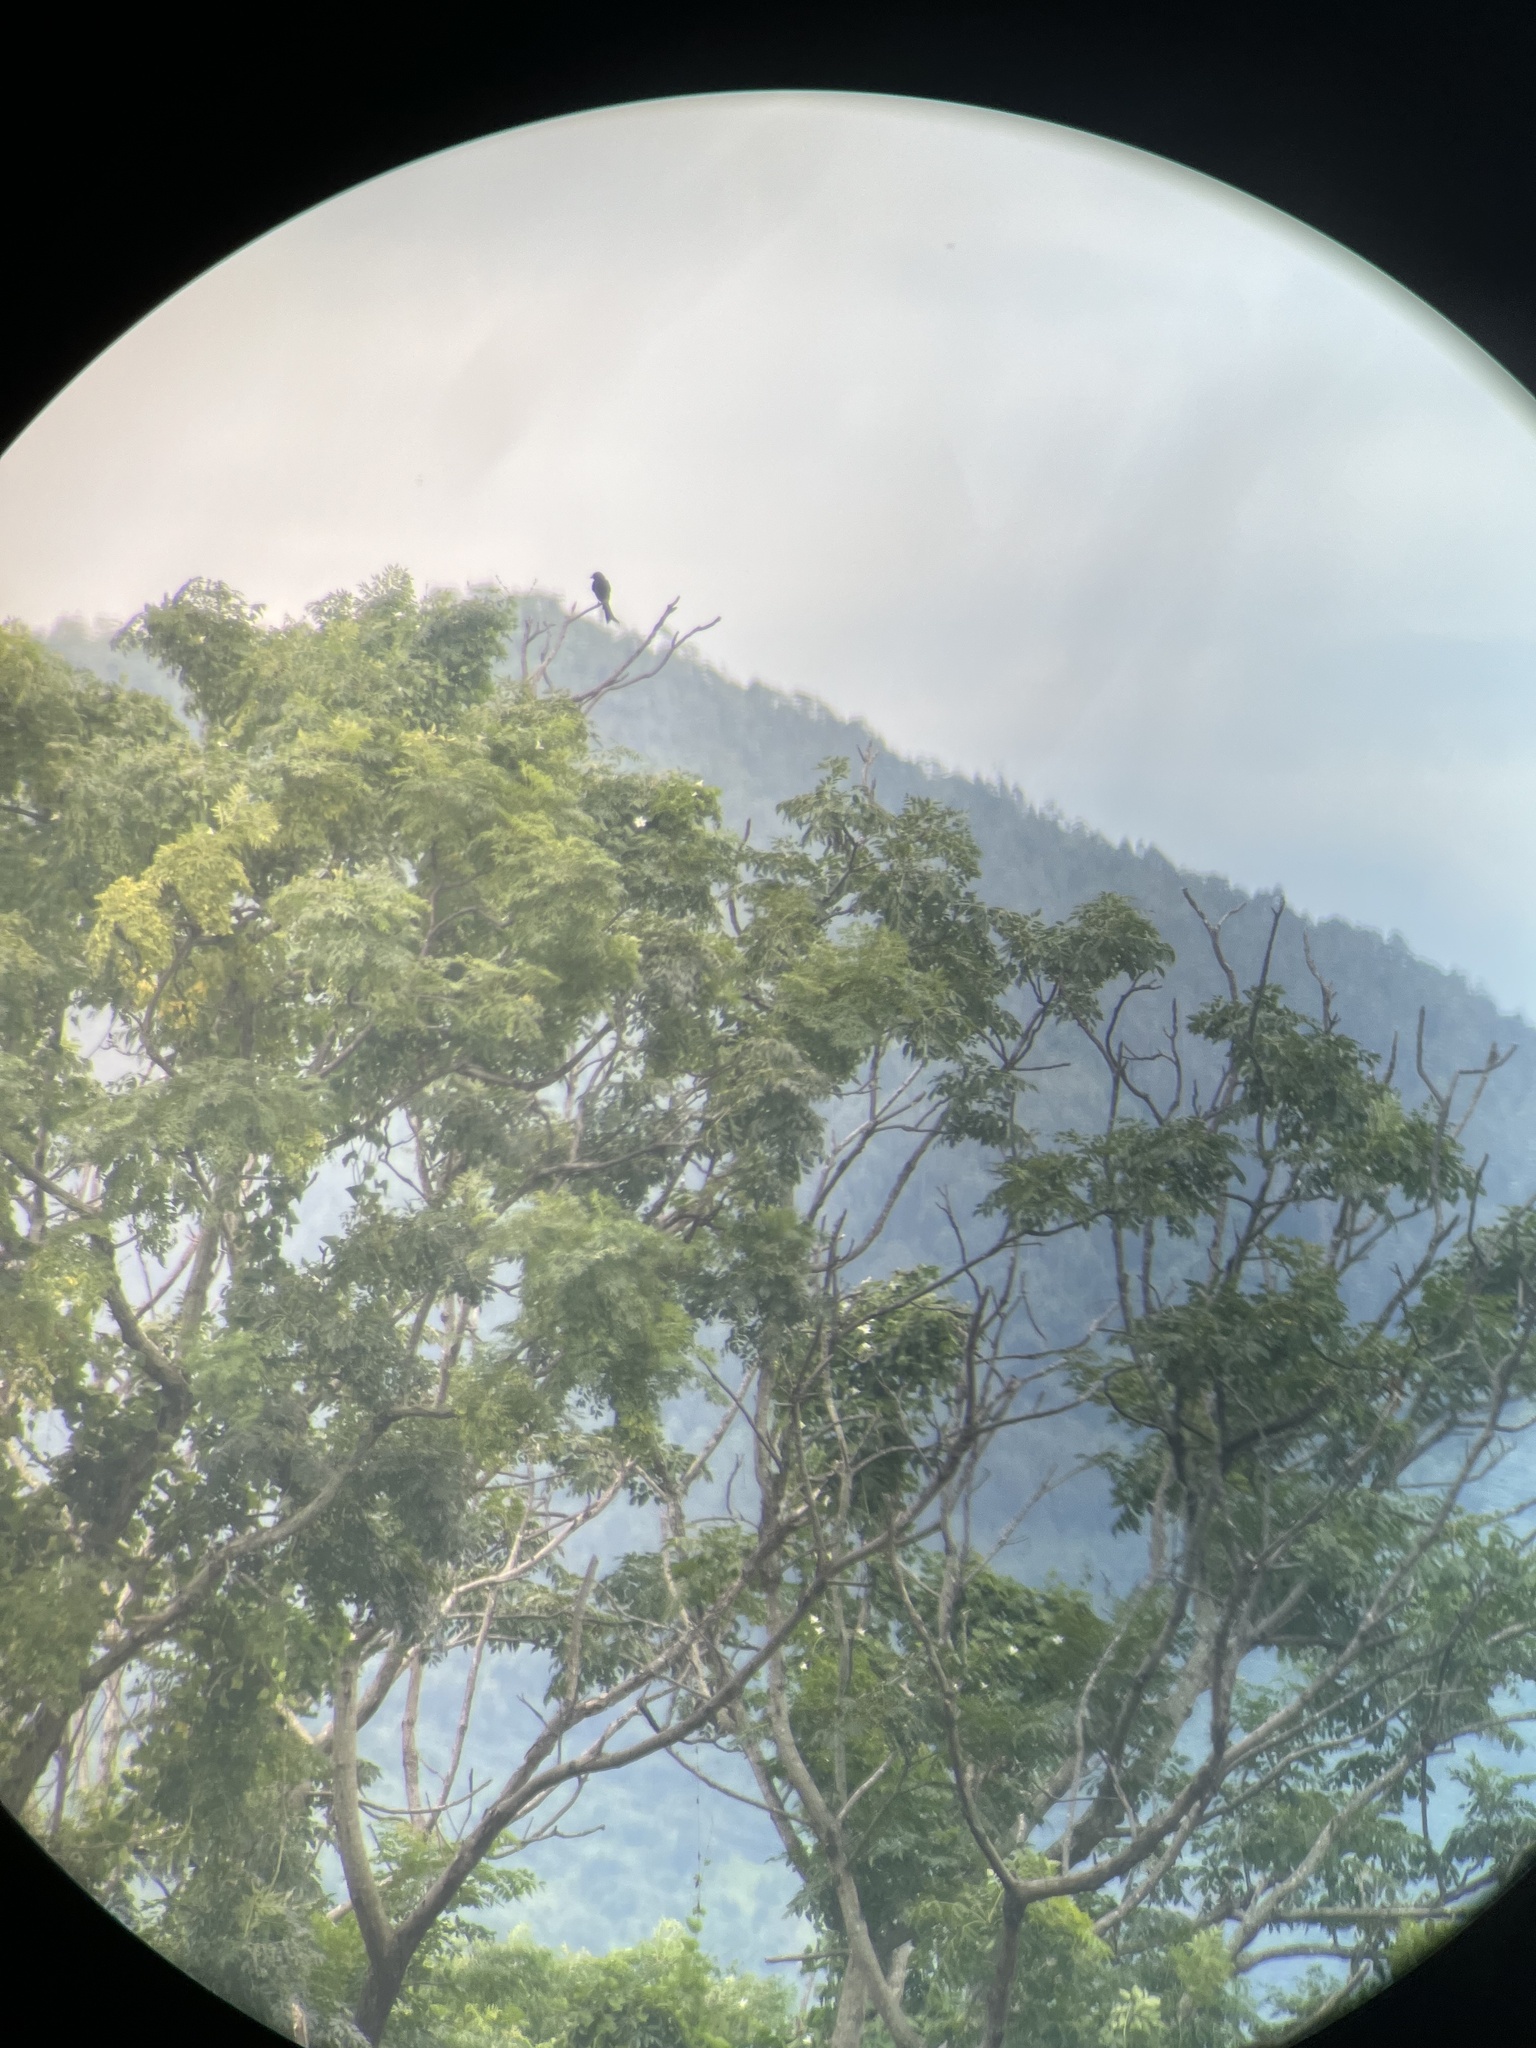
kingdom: Animalia
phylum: Chordata
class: Aves
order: Passeriformes
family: Dicruridae
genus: Dicrurus
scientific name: Dicrurus macrocercus
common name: Black drongo
